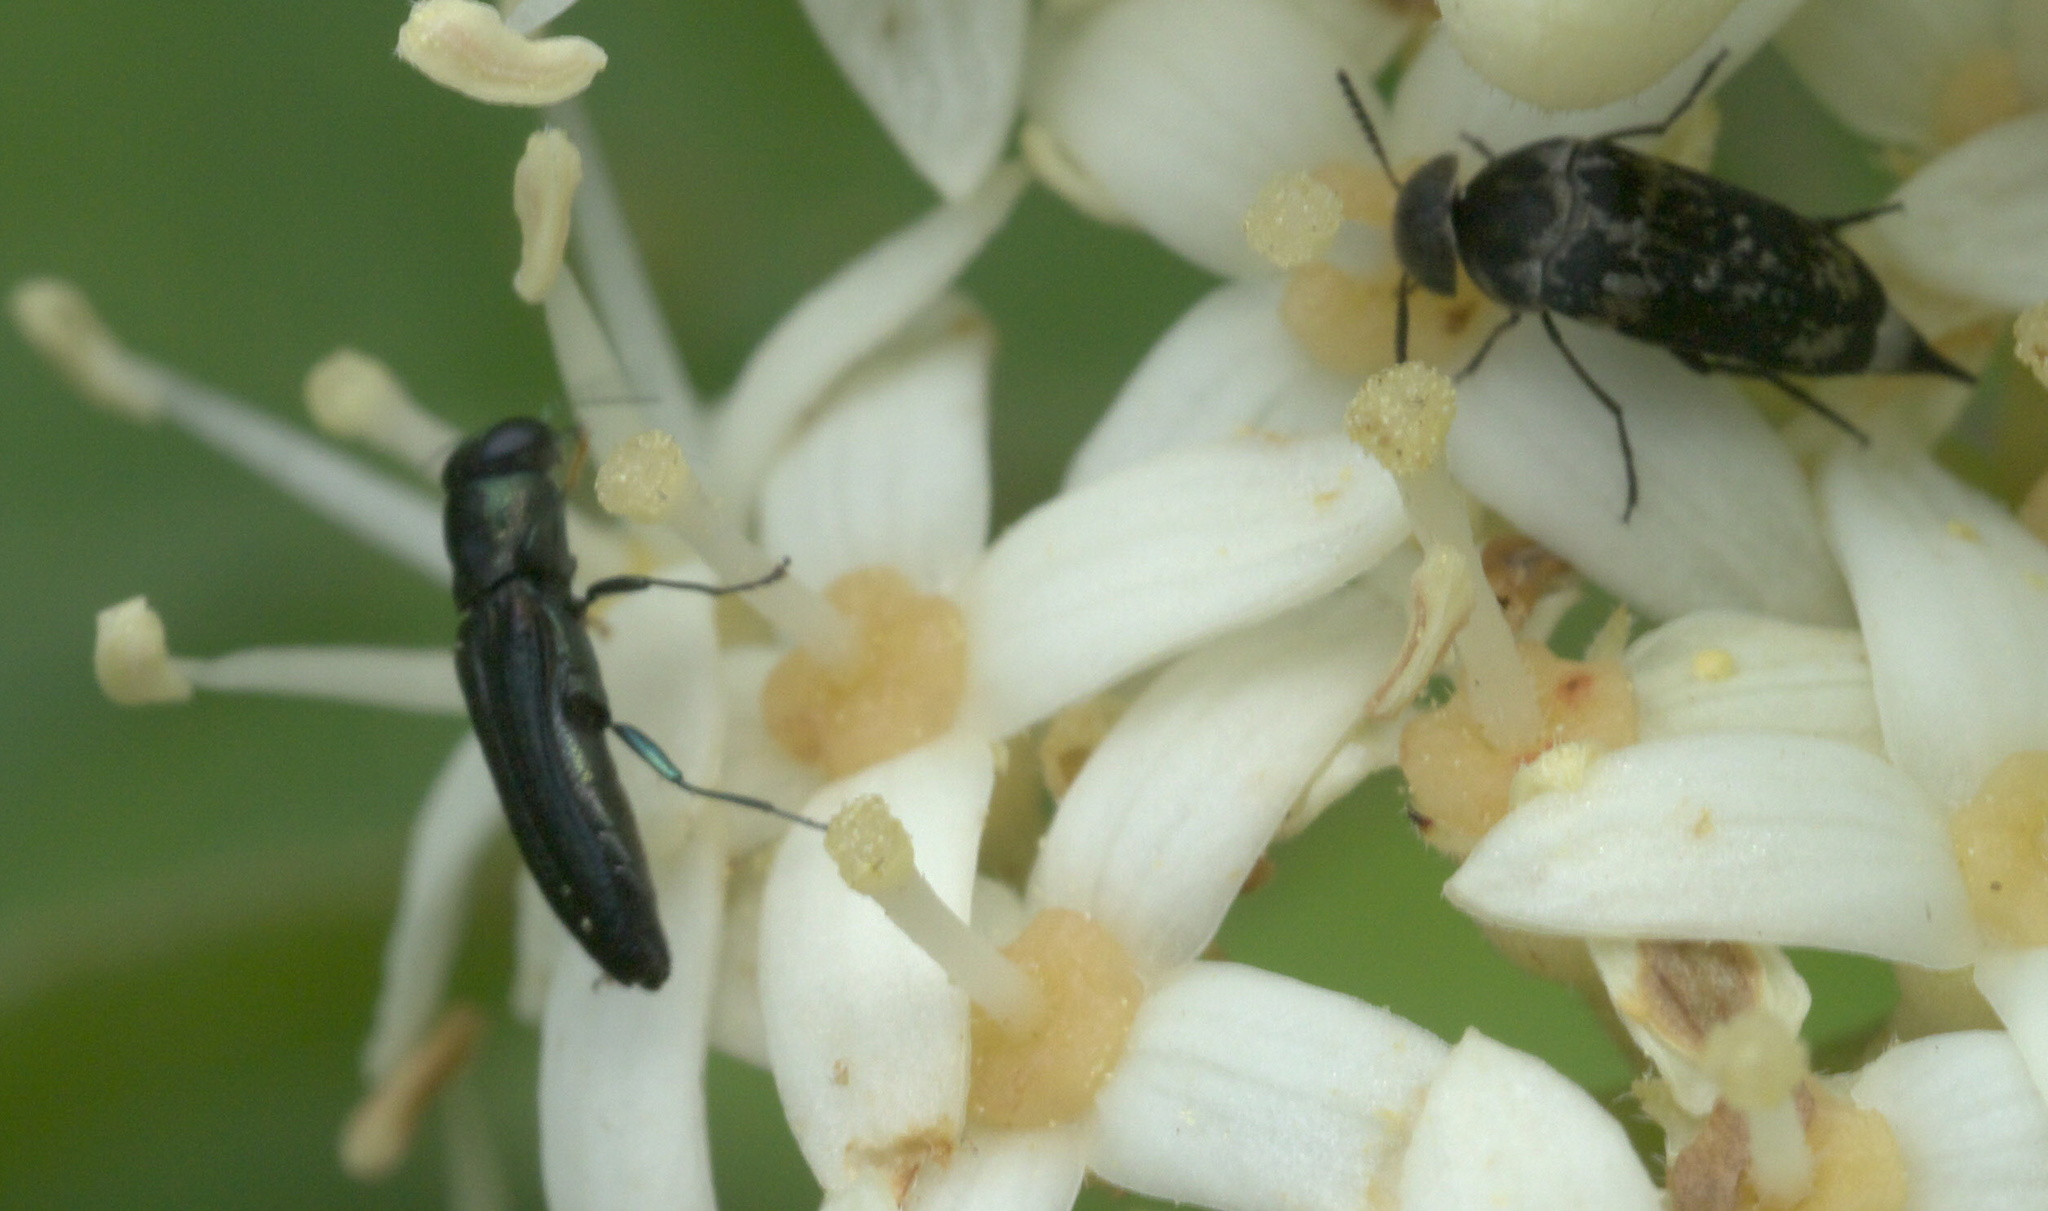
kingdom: Animalia
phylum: Arthropoda
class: Insecta
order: Coleoptera
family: Buprestidae
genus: Agrilaxia
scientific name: Agrilaxia flavimana
